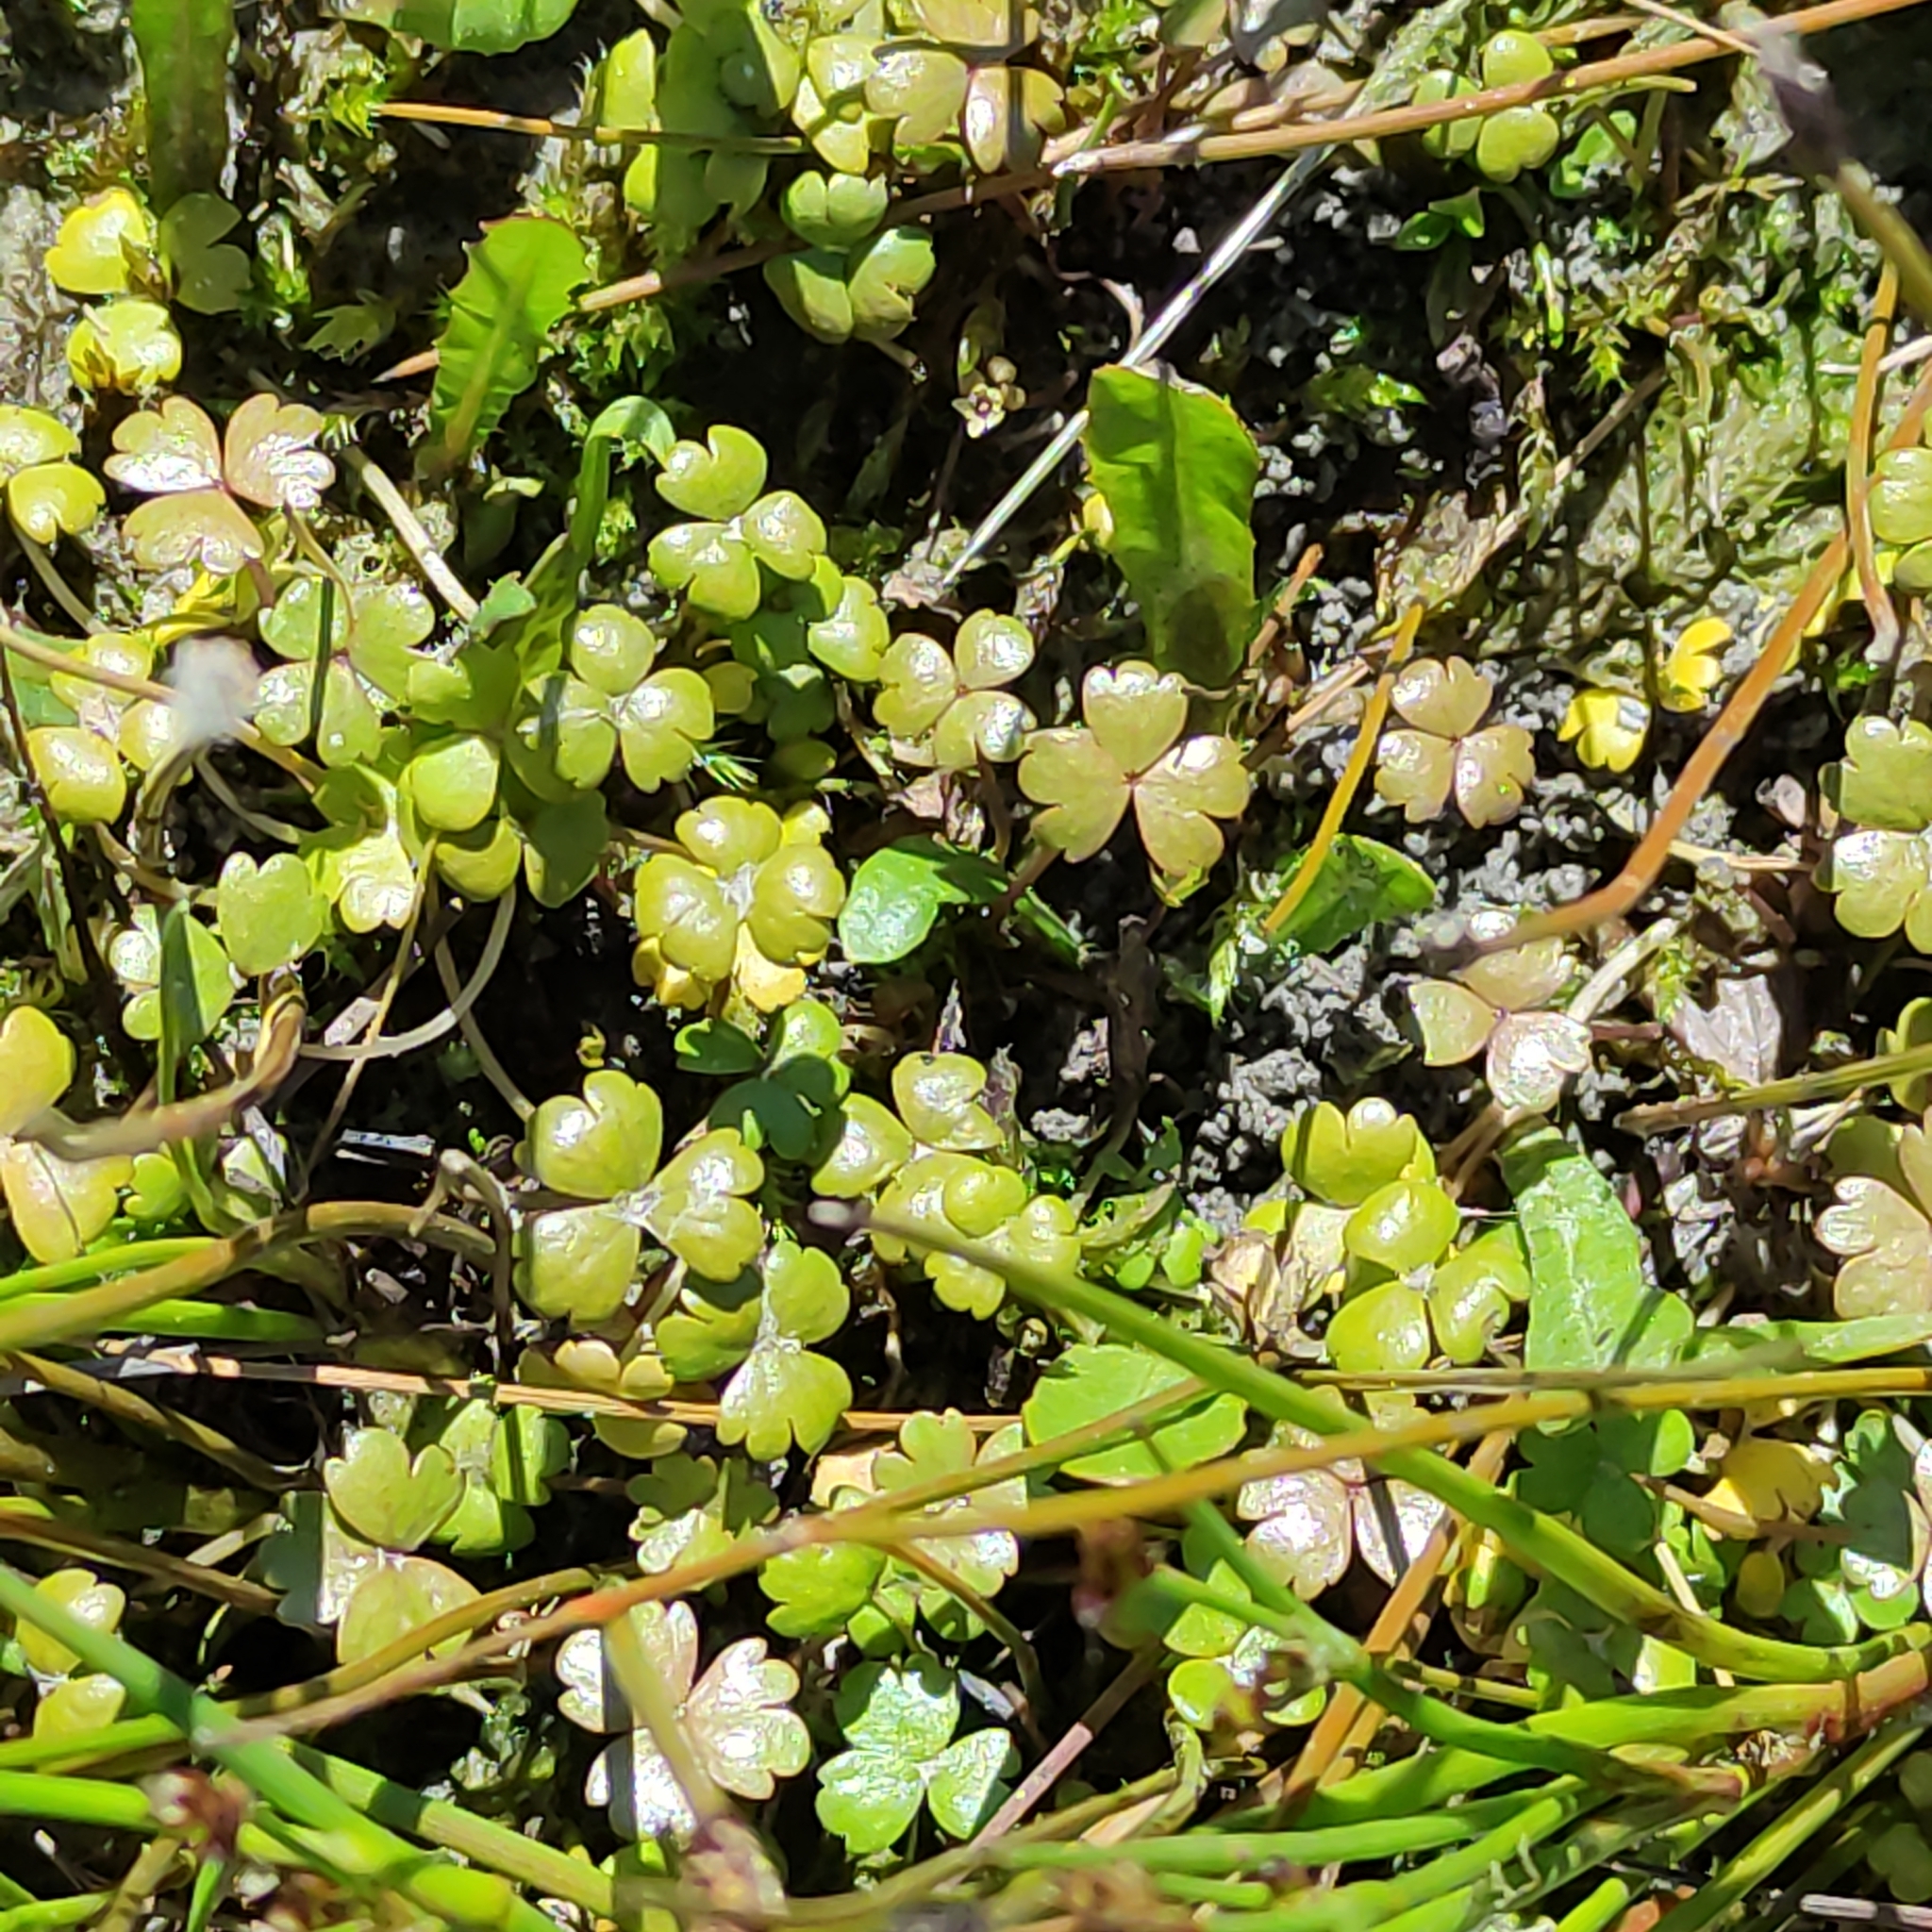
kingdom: Plantae
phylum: Tracheophyta
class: Magnoliopsida
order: Apiales
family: Araliaceae
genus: Hydrocotyle
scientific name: Hydrocotyle sulcata
